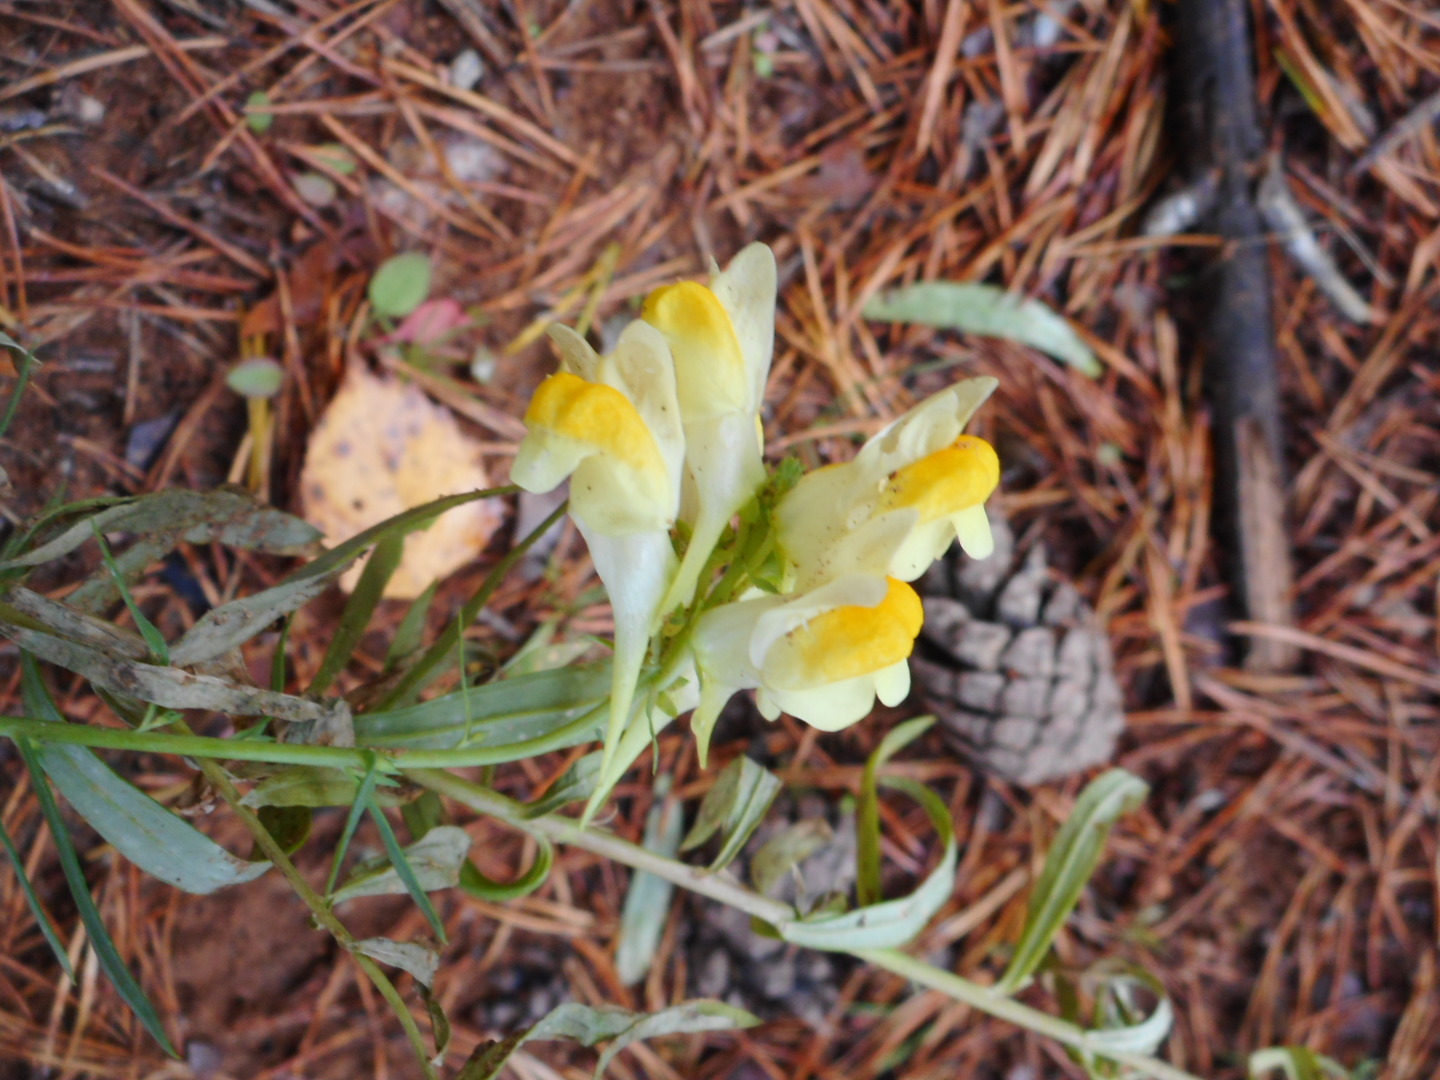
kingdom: Plantae
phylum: Tracheophyta
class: Magnoliopsida
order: Lamiales
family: Plantaginaceae
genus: Linaria
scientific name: Linaria vulgaris
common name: Butter and eggs
